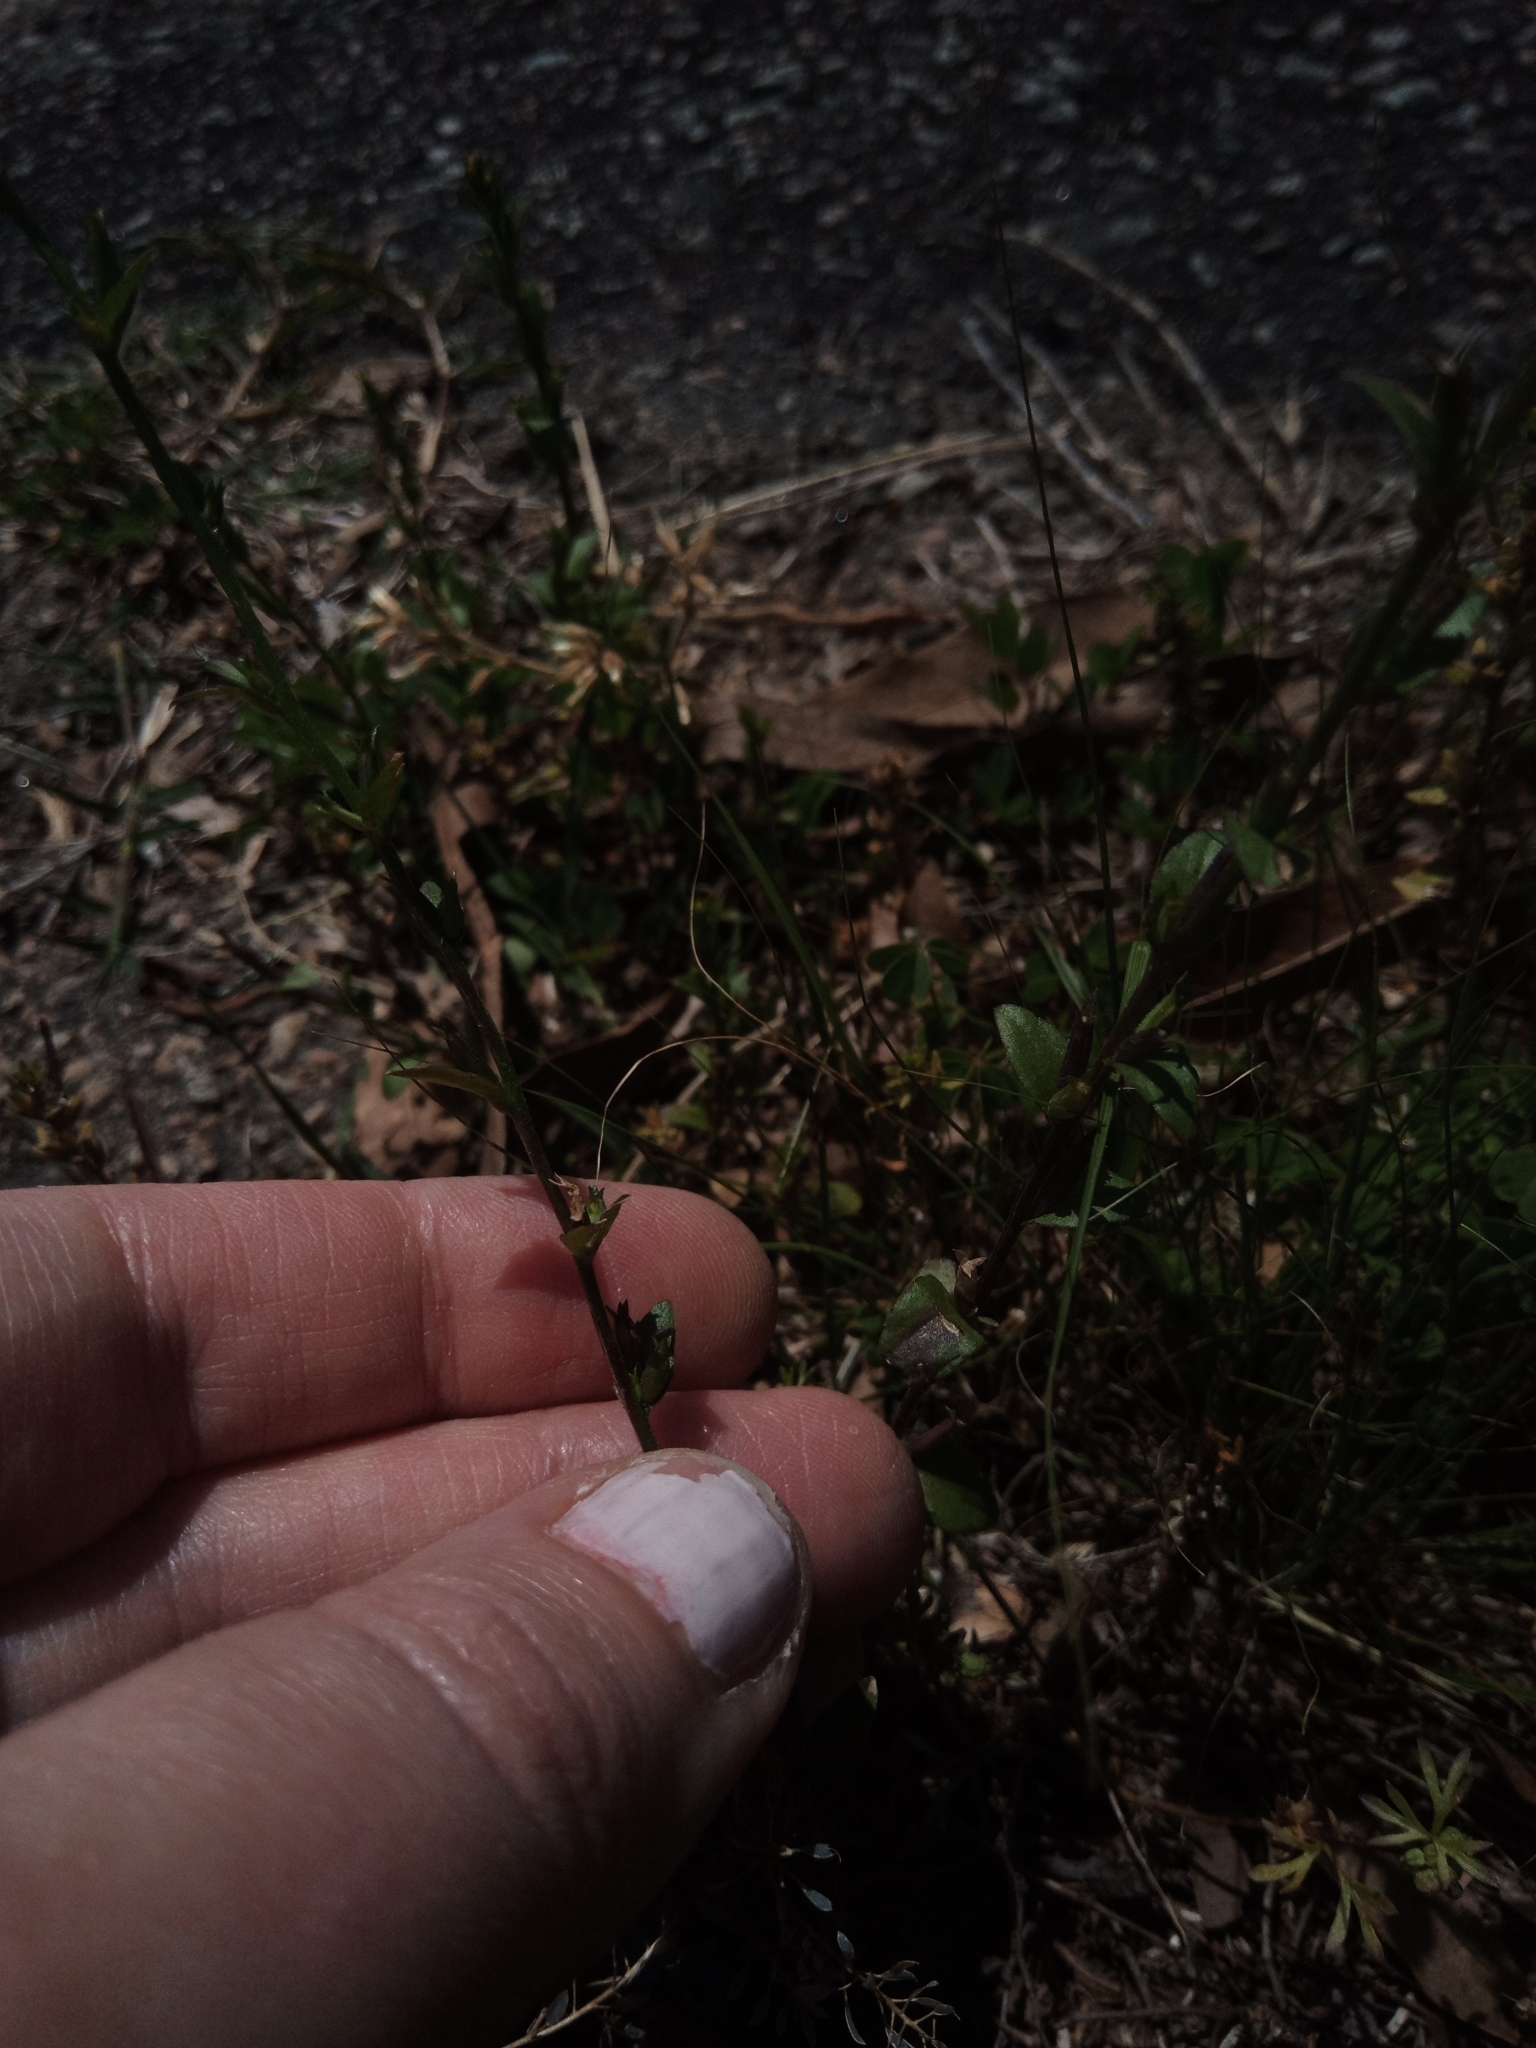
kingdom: Plantae
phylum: Tracheophyta
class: Magnoliopsida
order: Asterales
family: Campanulaceae
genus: Triodanis
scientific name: Triodanis perfoliata
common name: Clasping venus' looking-glass
